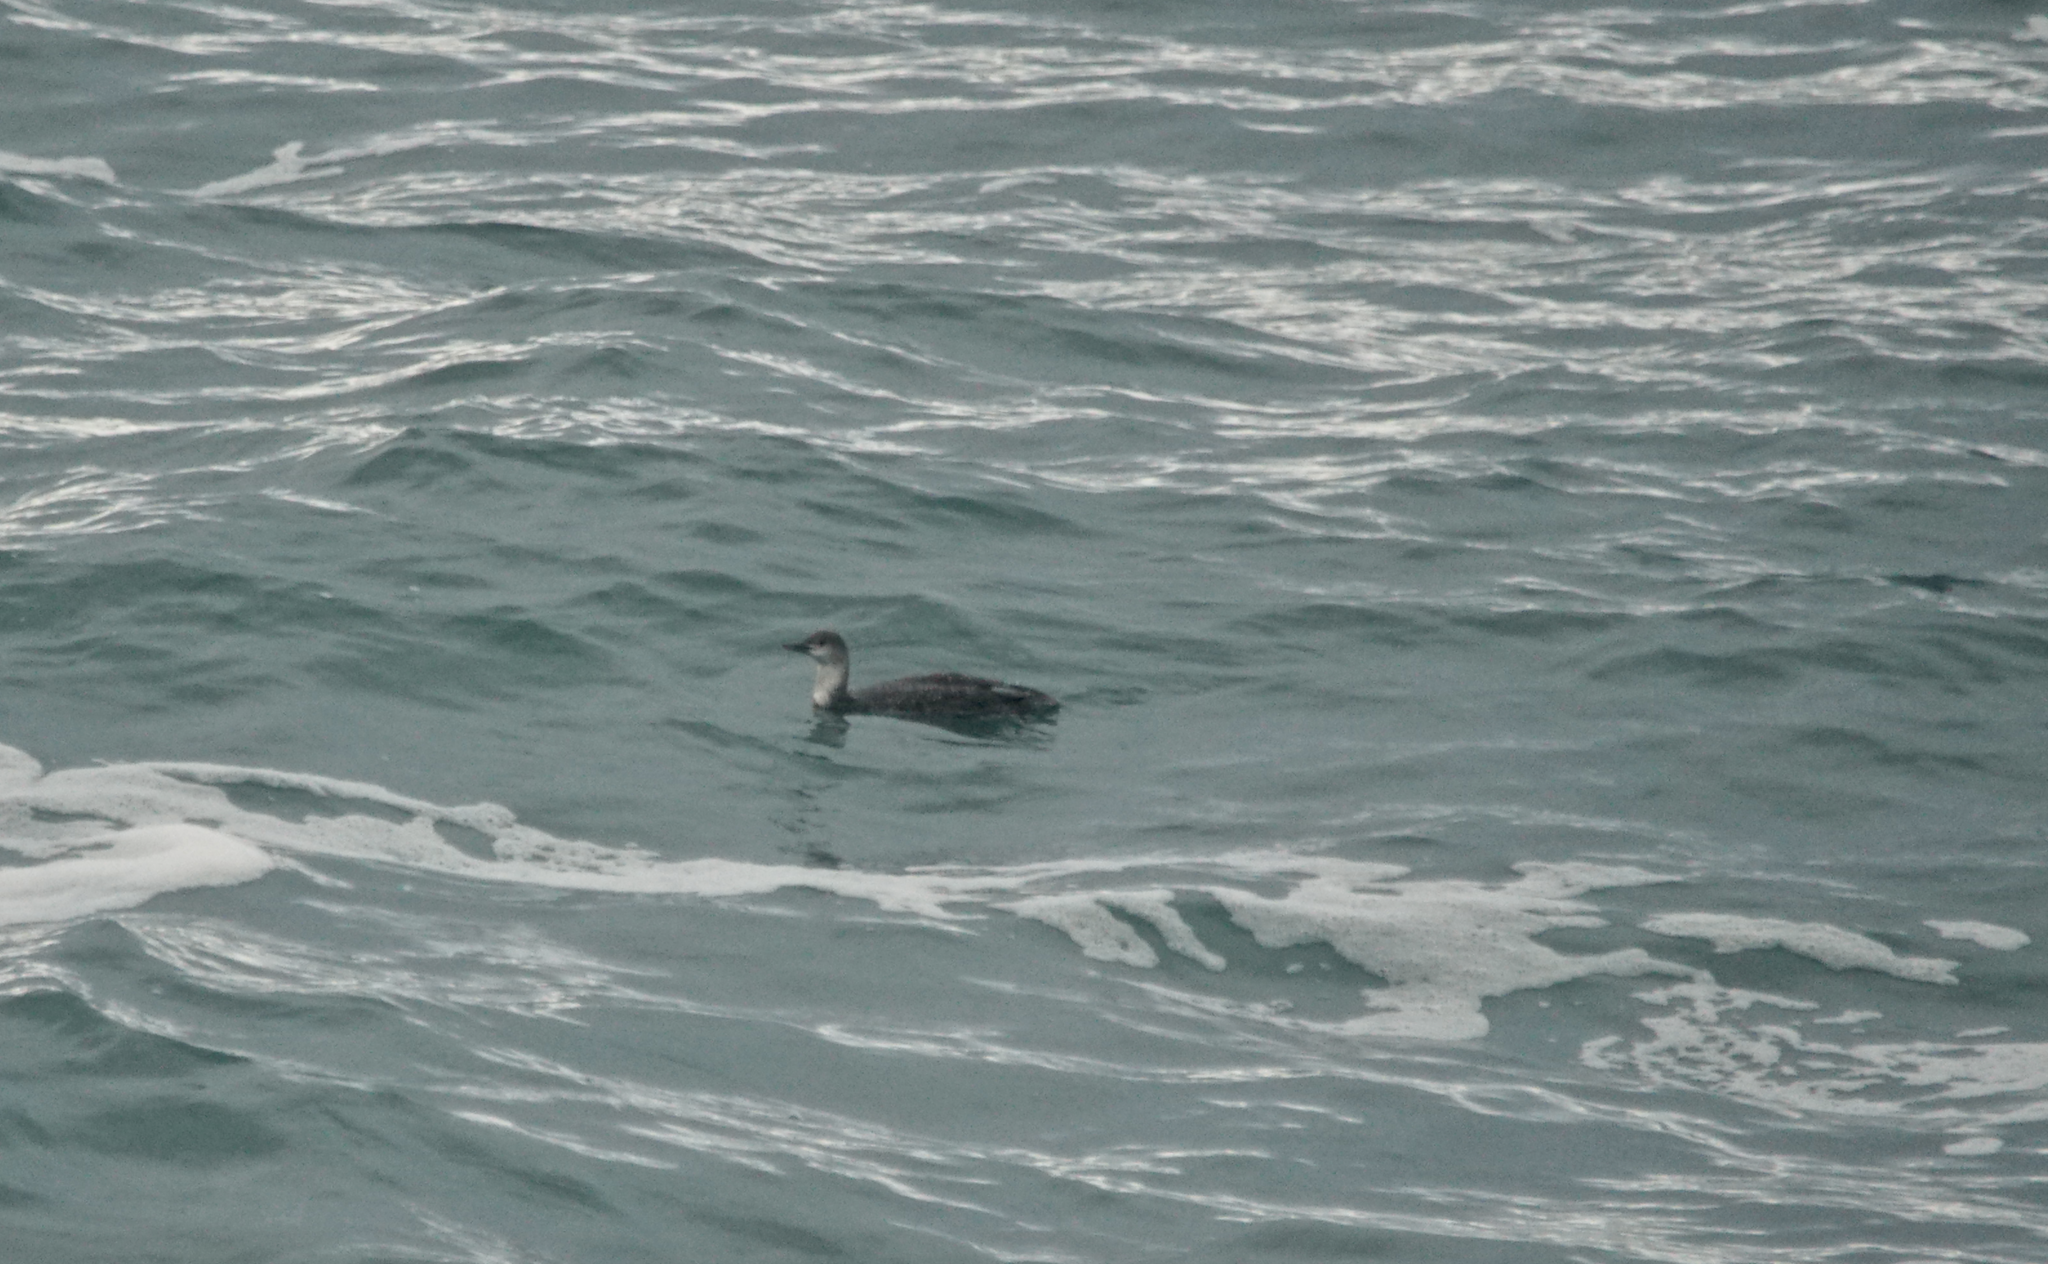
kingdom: Animalia
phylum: Chordata
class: Aves
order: Gaviiformes
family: Gaviidae
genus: Gavia
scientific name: Gavia stellata
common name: Red-throated loon
